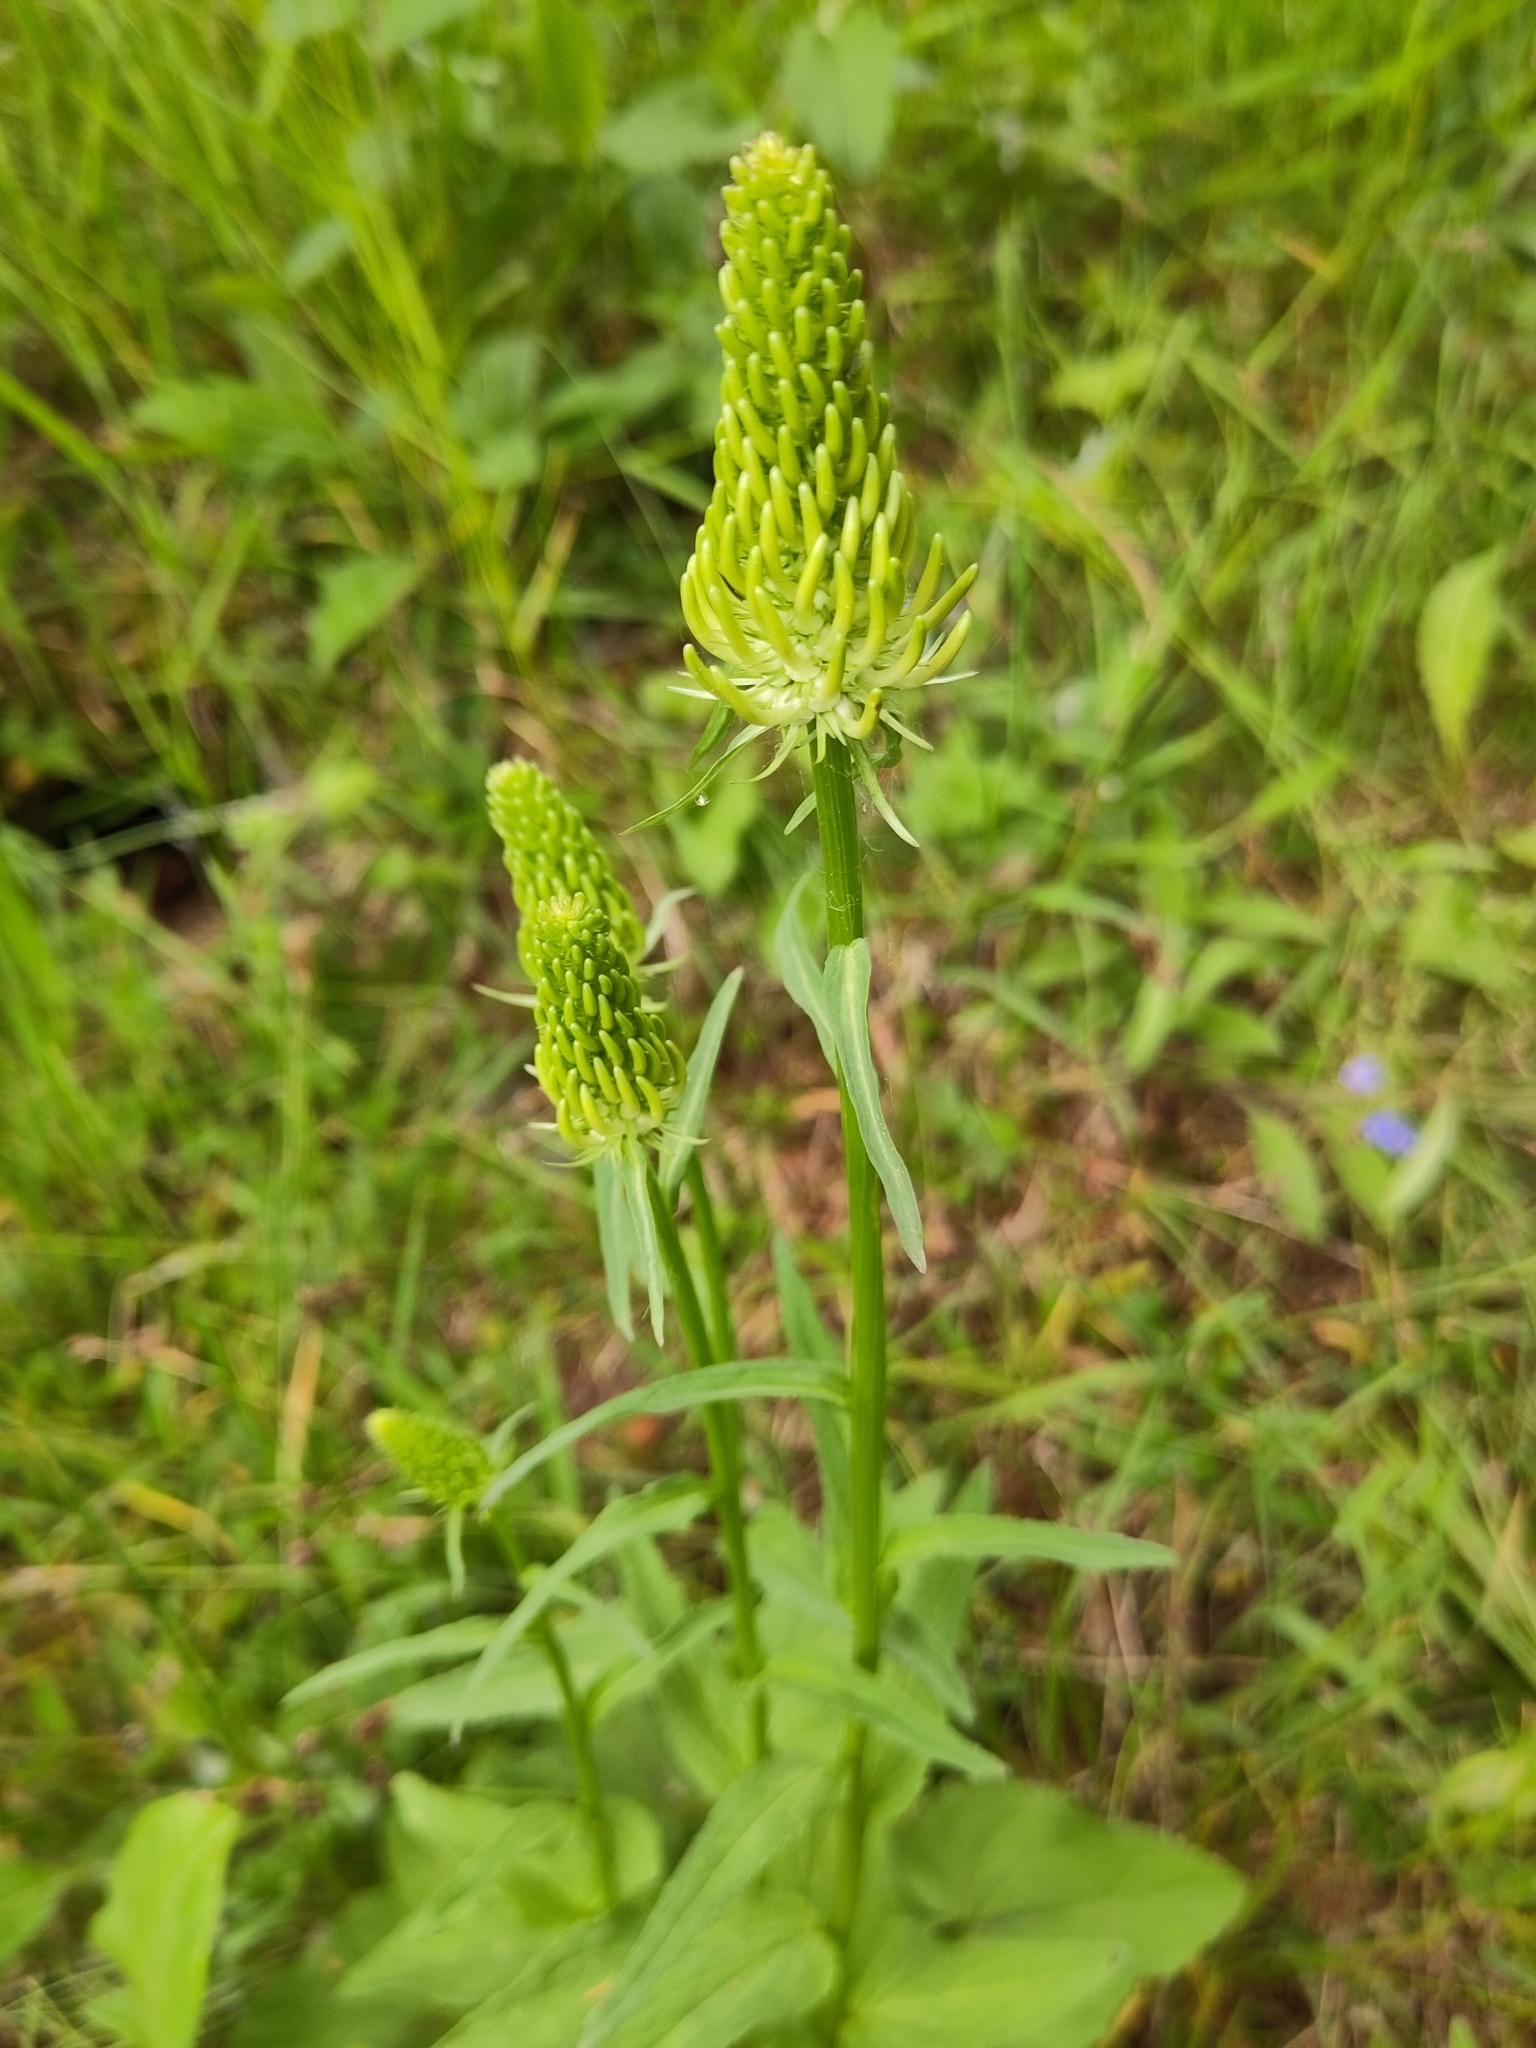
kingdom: Plantae
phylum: Tracheophyta
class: Magnoliopsida
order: Asterales
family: Campanulaceae
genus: Phyteuma
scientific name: Phyteuma spicatum
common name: Spiked rampion
